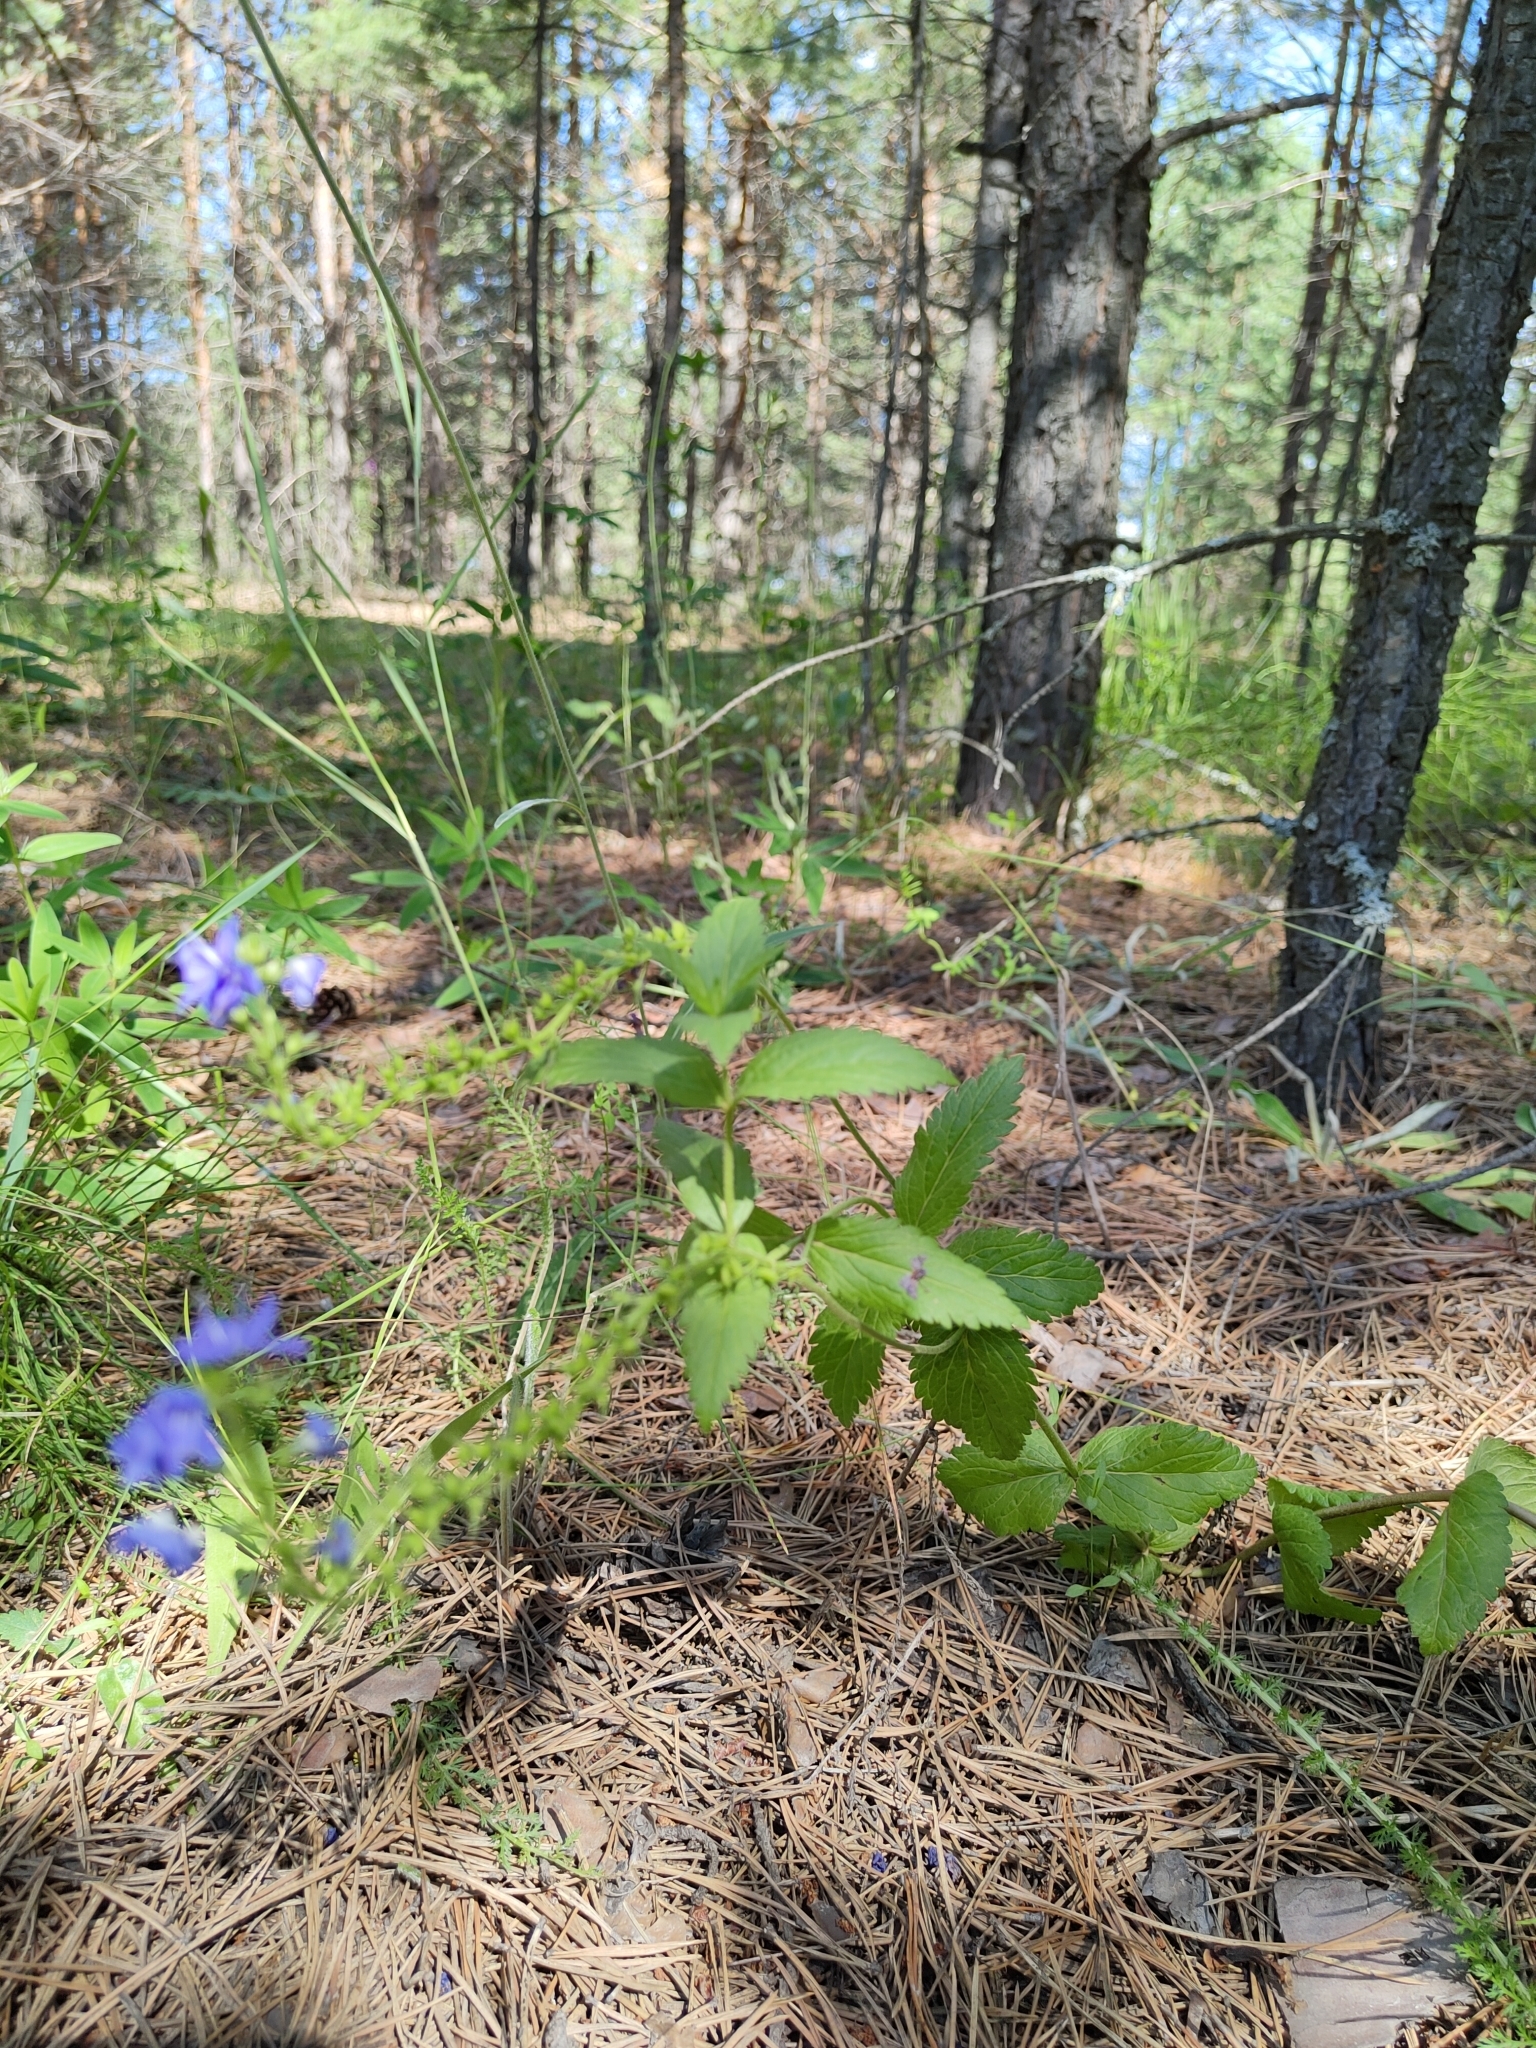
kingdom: Plantae
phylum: Tracheophyta
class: Magnoliopsida
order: Lamiales
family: Plantaginaceae
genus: Veronica
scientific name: Veronica teucrium
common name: Large speedwell
